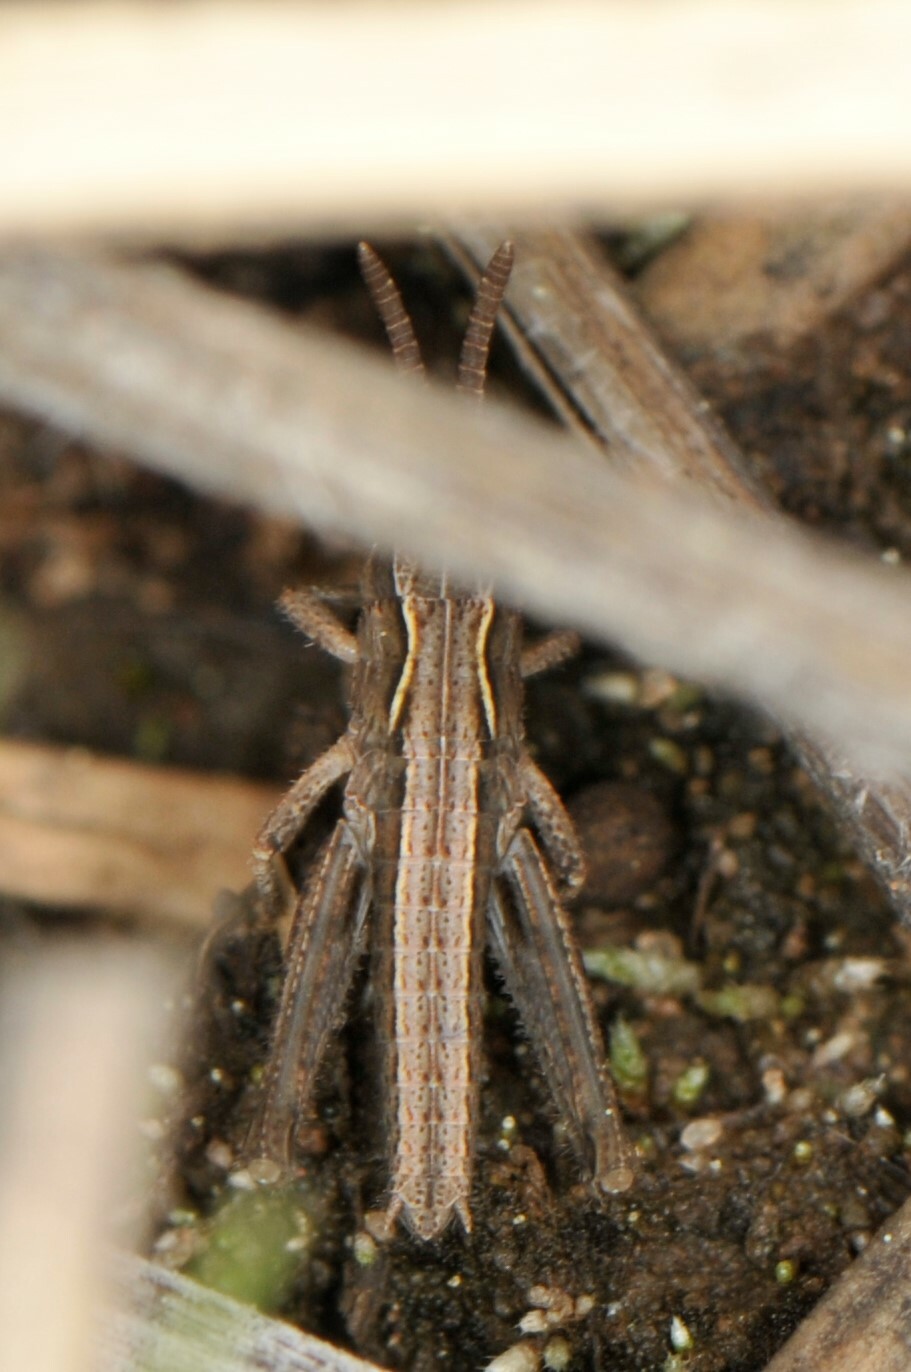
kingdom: Animalia
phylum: Arthropoda
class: Insecta
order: Orthoptera
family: Acrididae
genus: Aeropedellus
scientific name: Aeropedellus clavatus
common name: Clubhorned grasshopper
